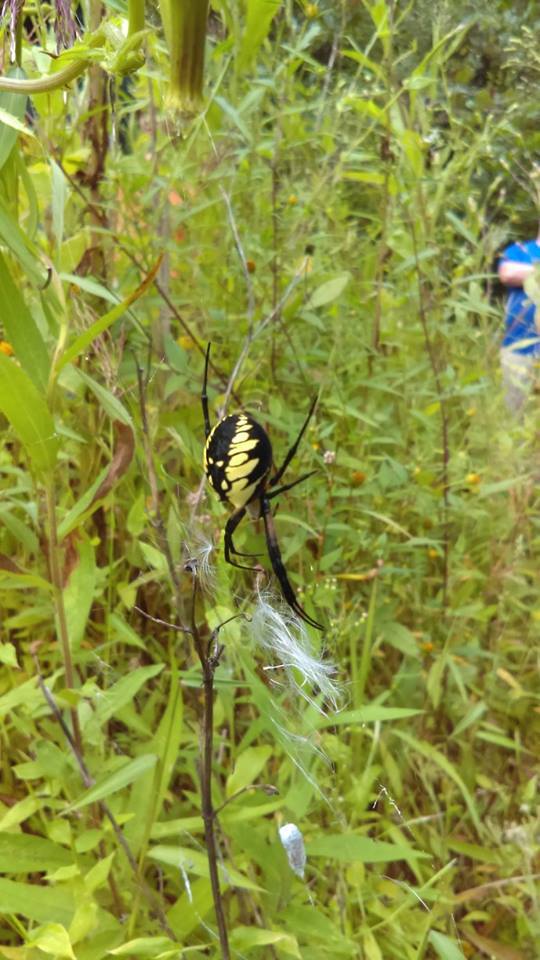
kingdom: Animalia
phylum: Arthropoda
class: Arachnida
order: Araneae
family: Araneidae
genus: Argiope
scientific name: Argiope aurantia
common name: Orb weavers
